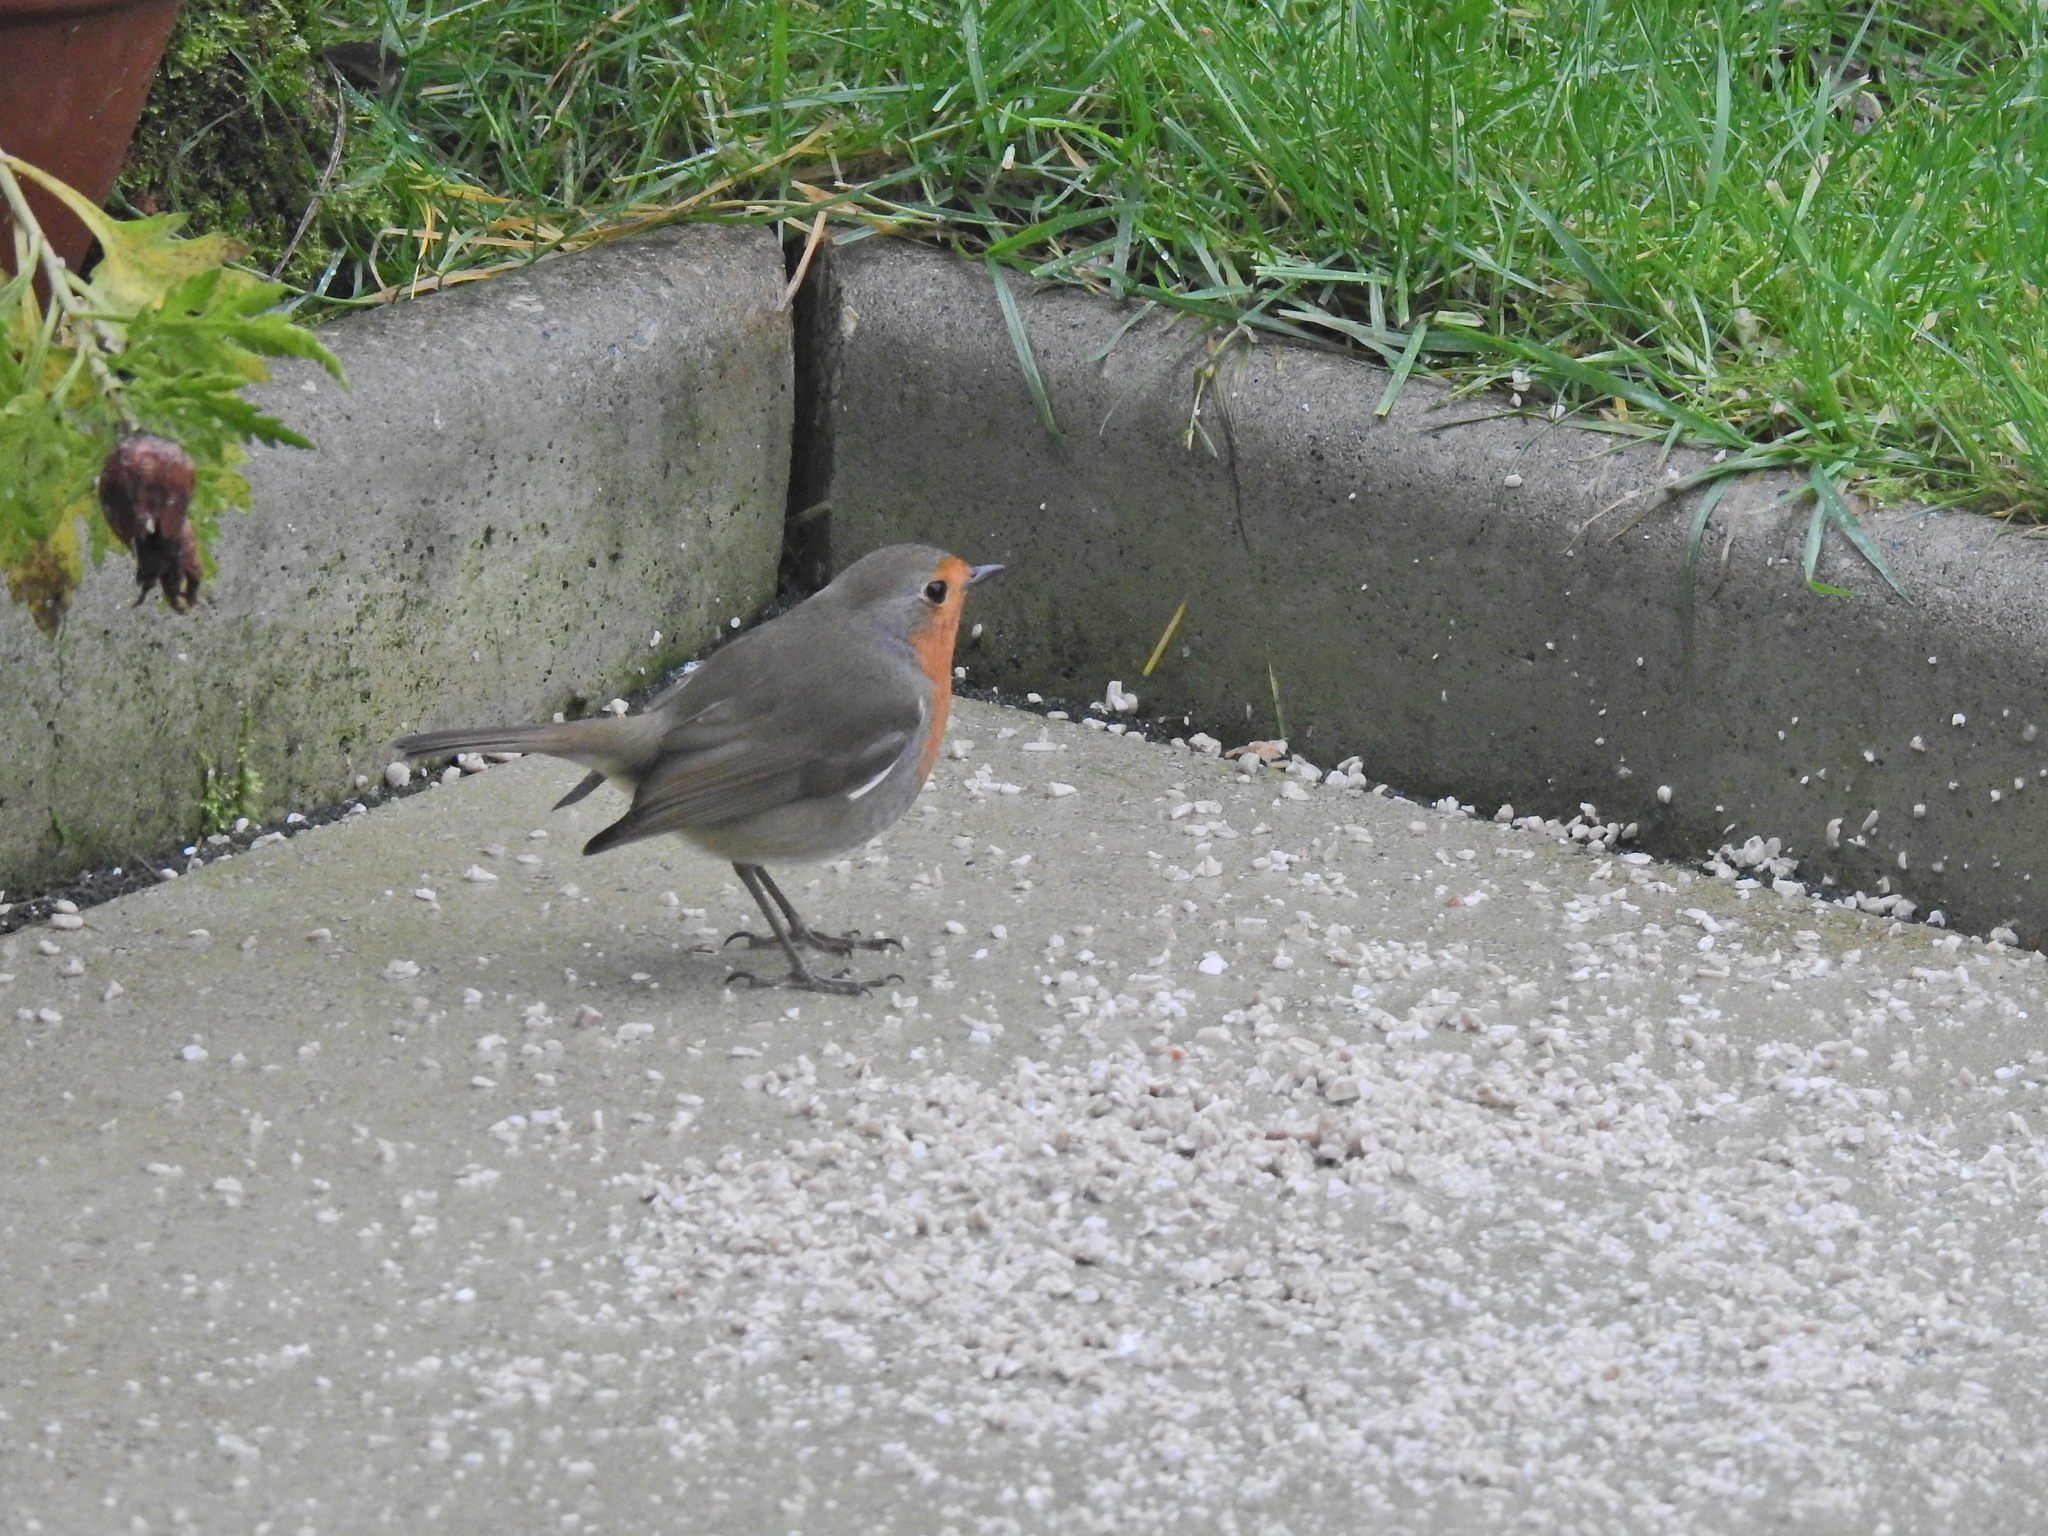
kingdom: Animalia
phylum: Chordata
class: Aves
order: Passeriformes
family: Muscicapidae
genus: Erithacus
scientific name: Erithacus rubecula
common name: European robin
